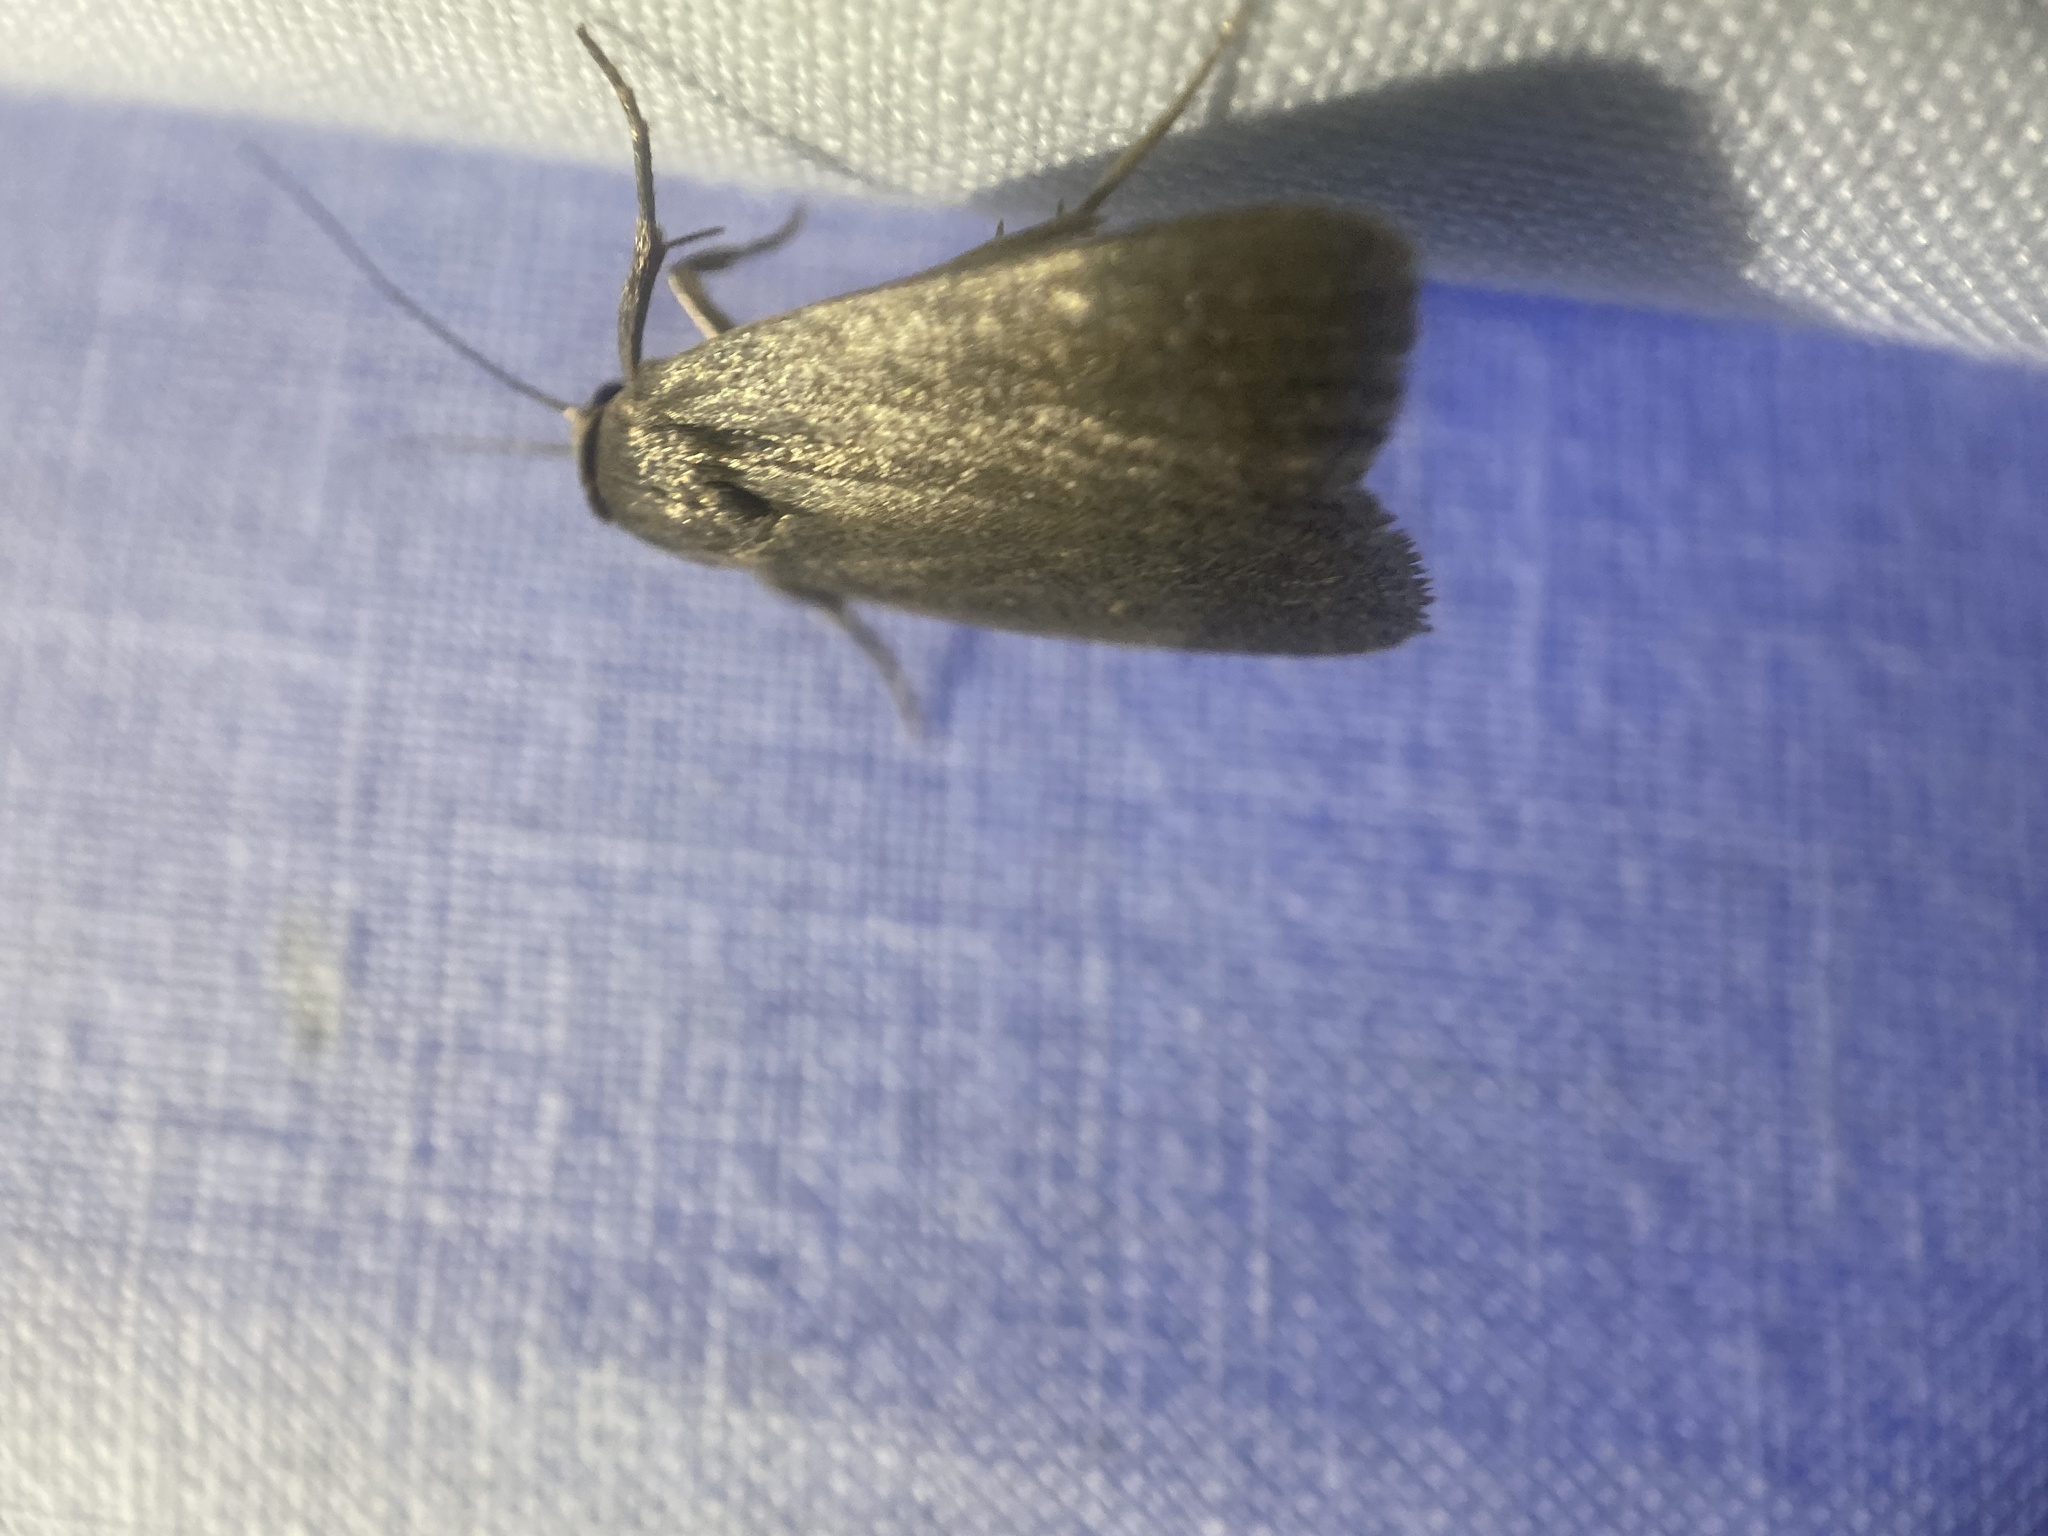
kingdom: Animalia
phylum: Arthropoda
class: Insecta
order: Lepidoptera
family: Noctuidae
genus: Proxenus
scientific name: Proxenus miranda
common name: Miranda moth
